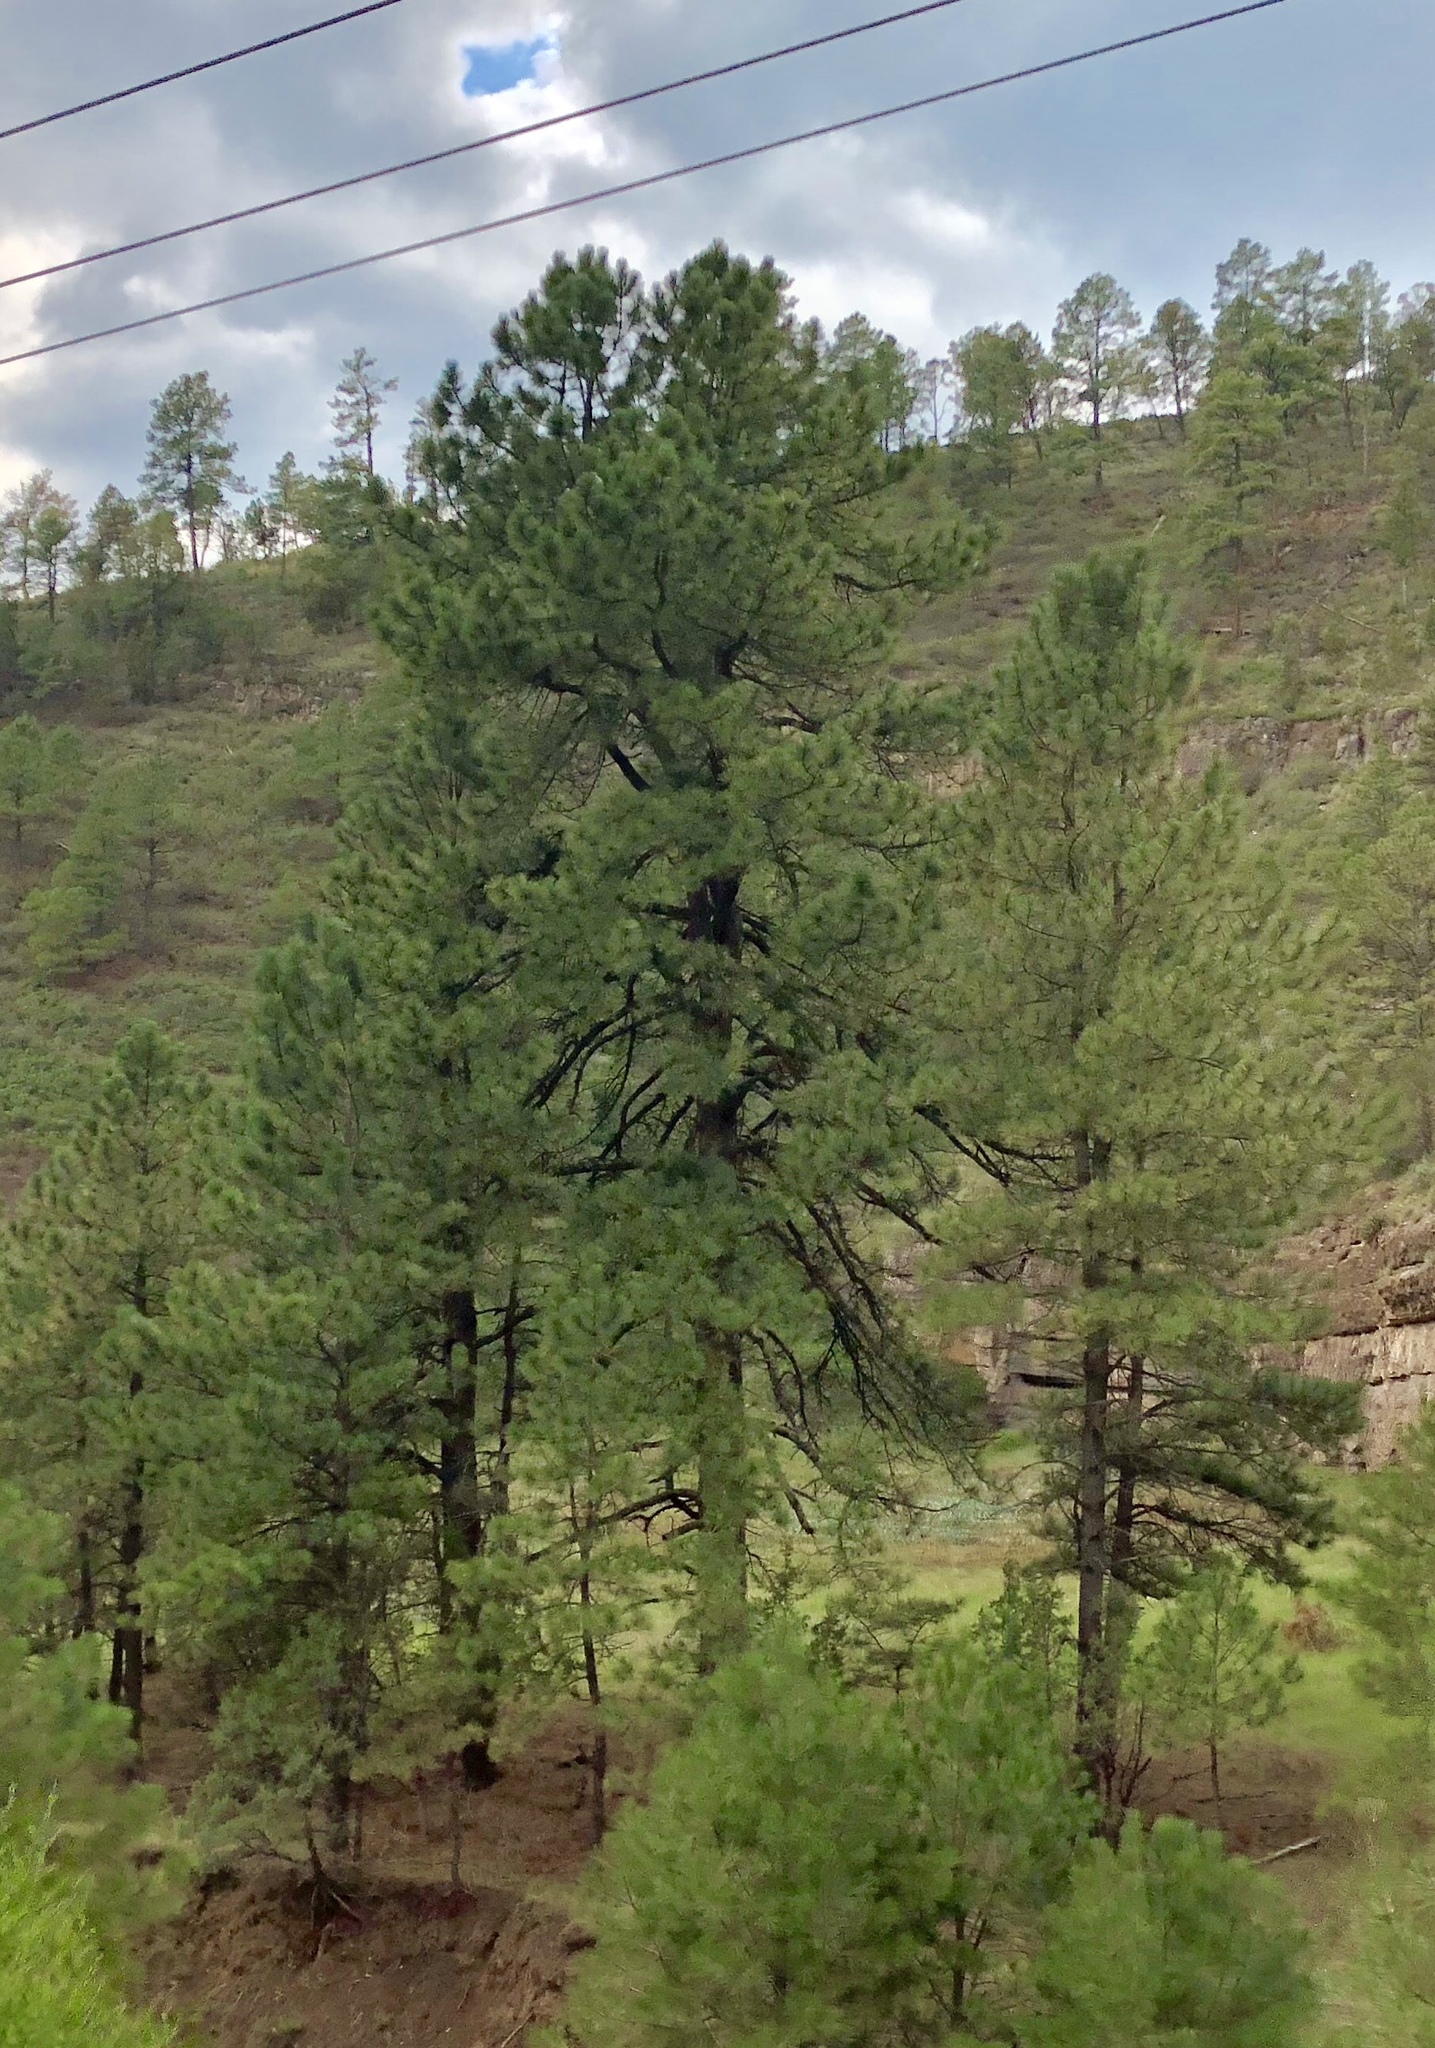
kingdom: Plantae
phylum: Tracheophyta
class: Pinopsida
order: Pinales
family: Pinaceae
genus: Pinus
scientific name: Pinus ponderosa
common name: Western yellow-pine
